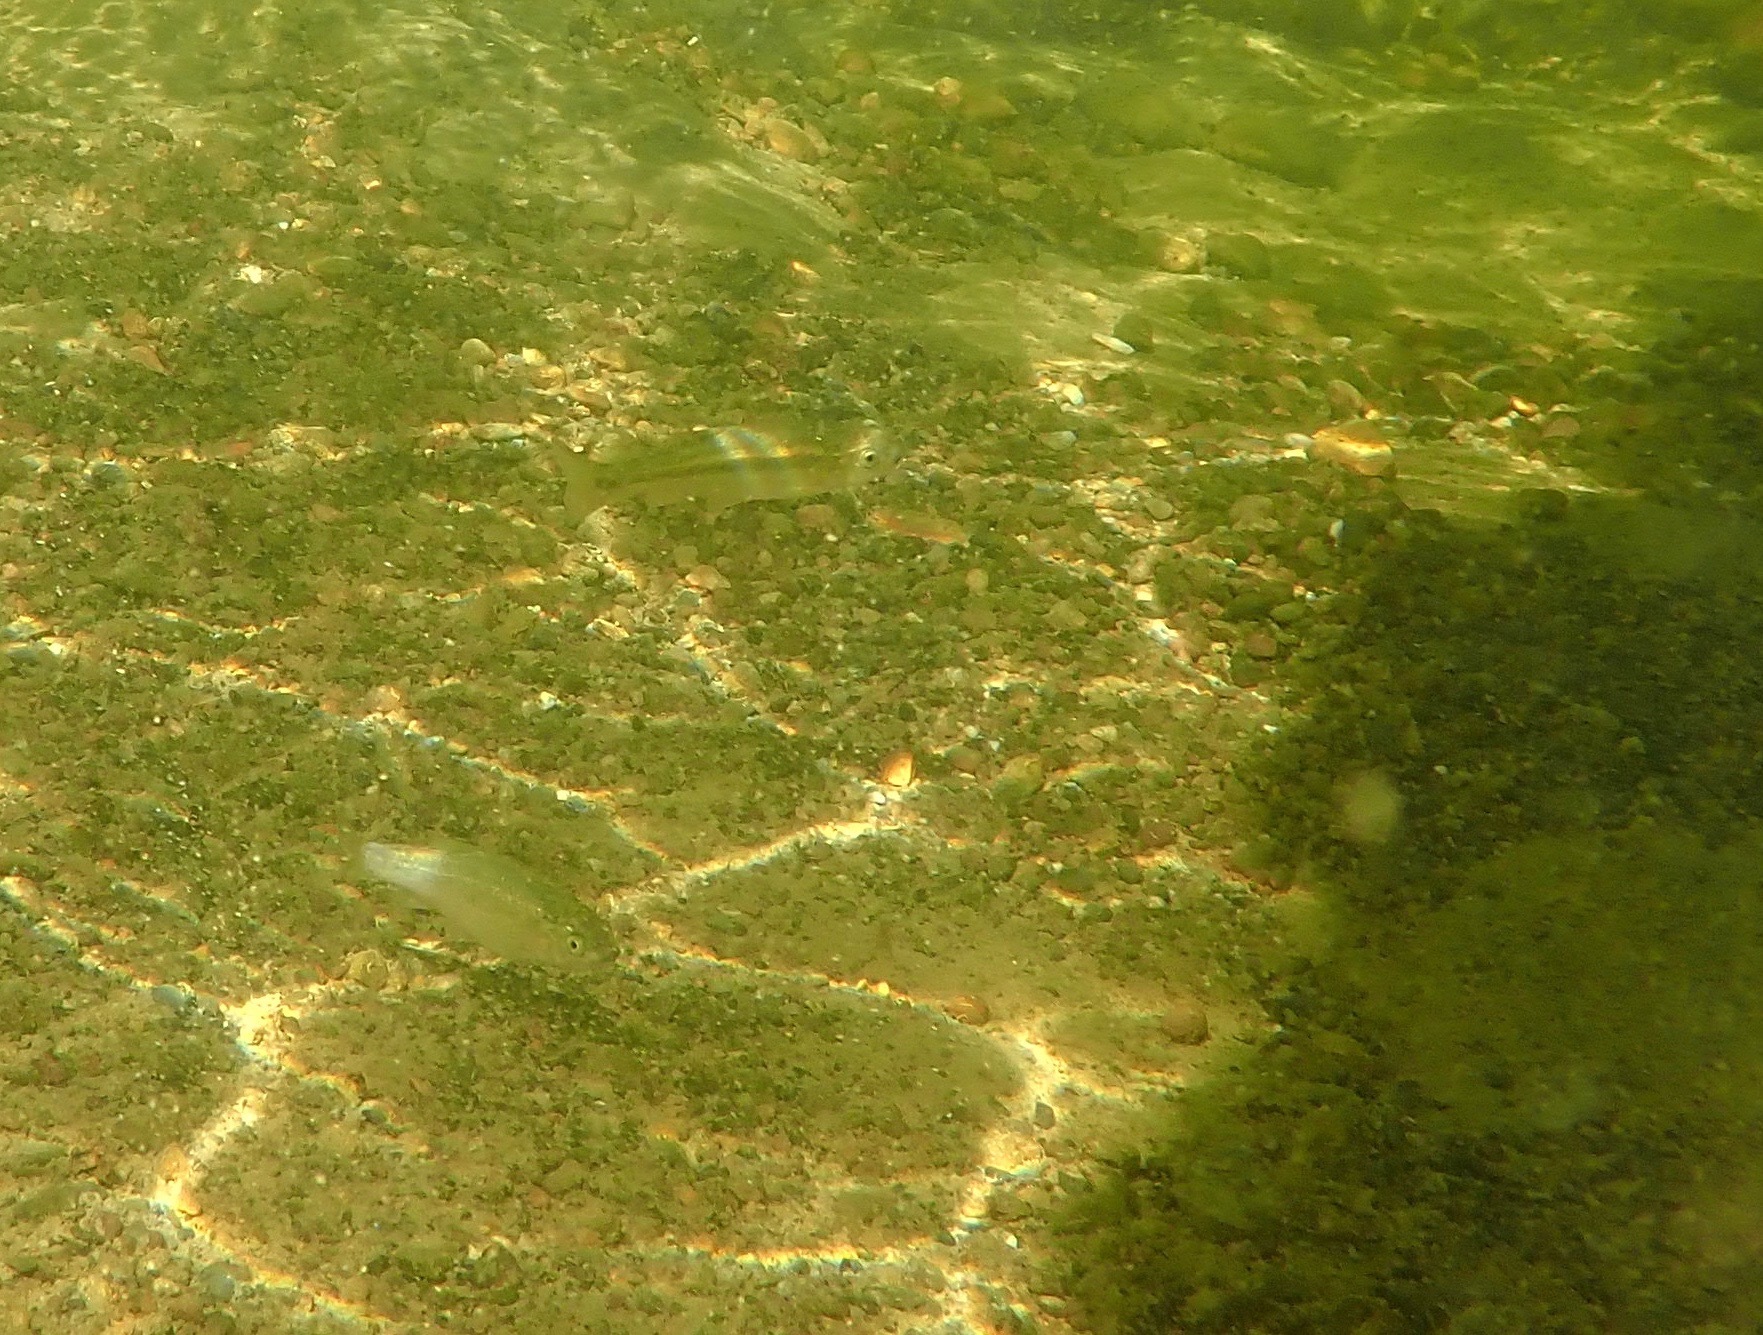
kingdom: Animalia
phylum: Chordata
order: Cypriniformes
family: Cyprinidae
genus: Gila
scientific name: Gila orcuttii
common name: Arroyo chub
